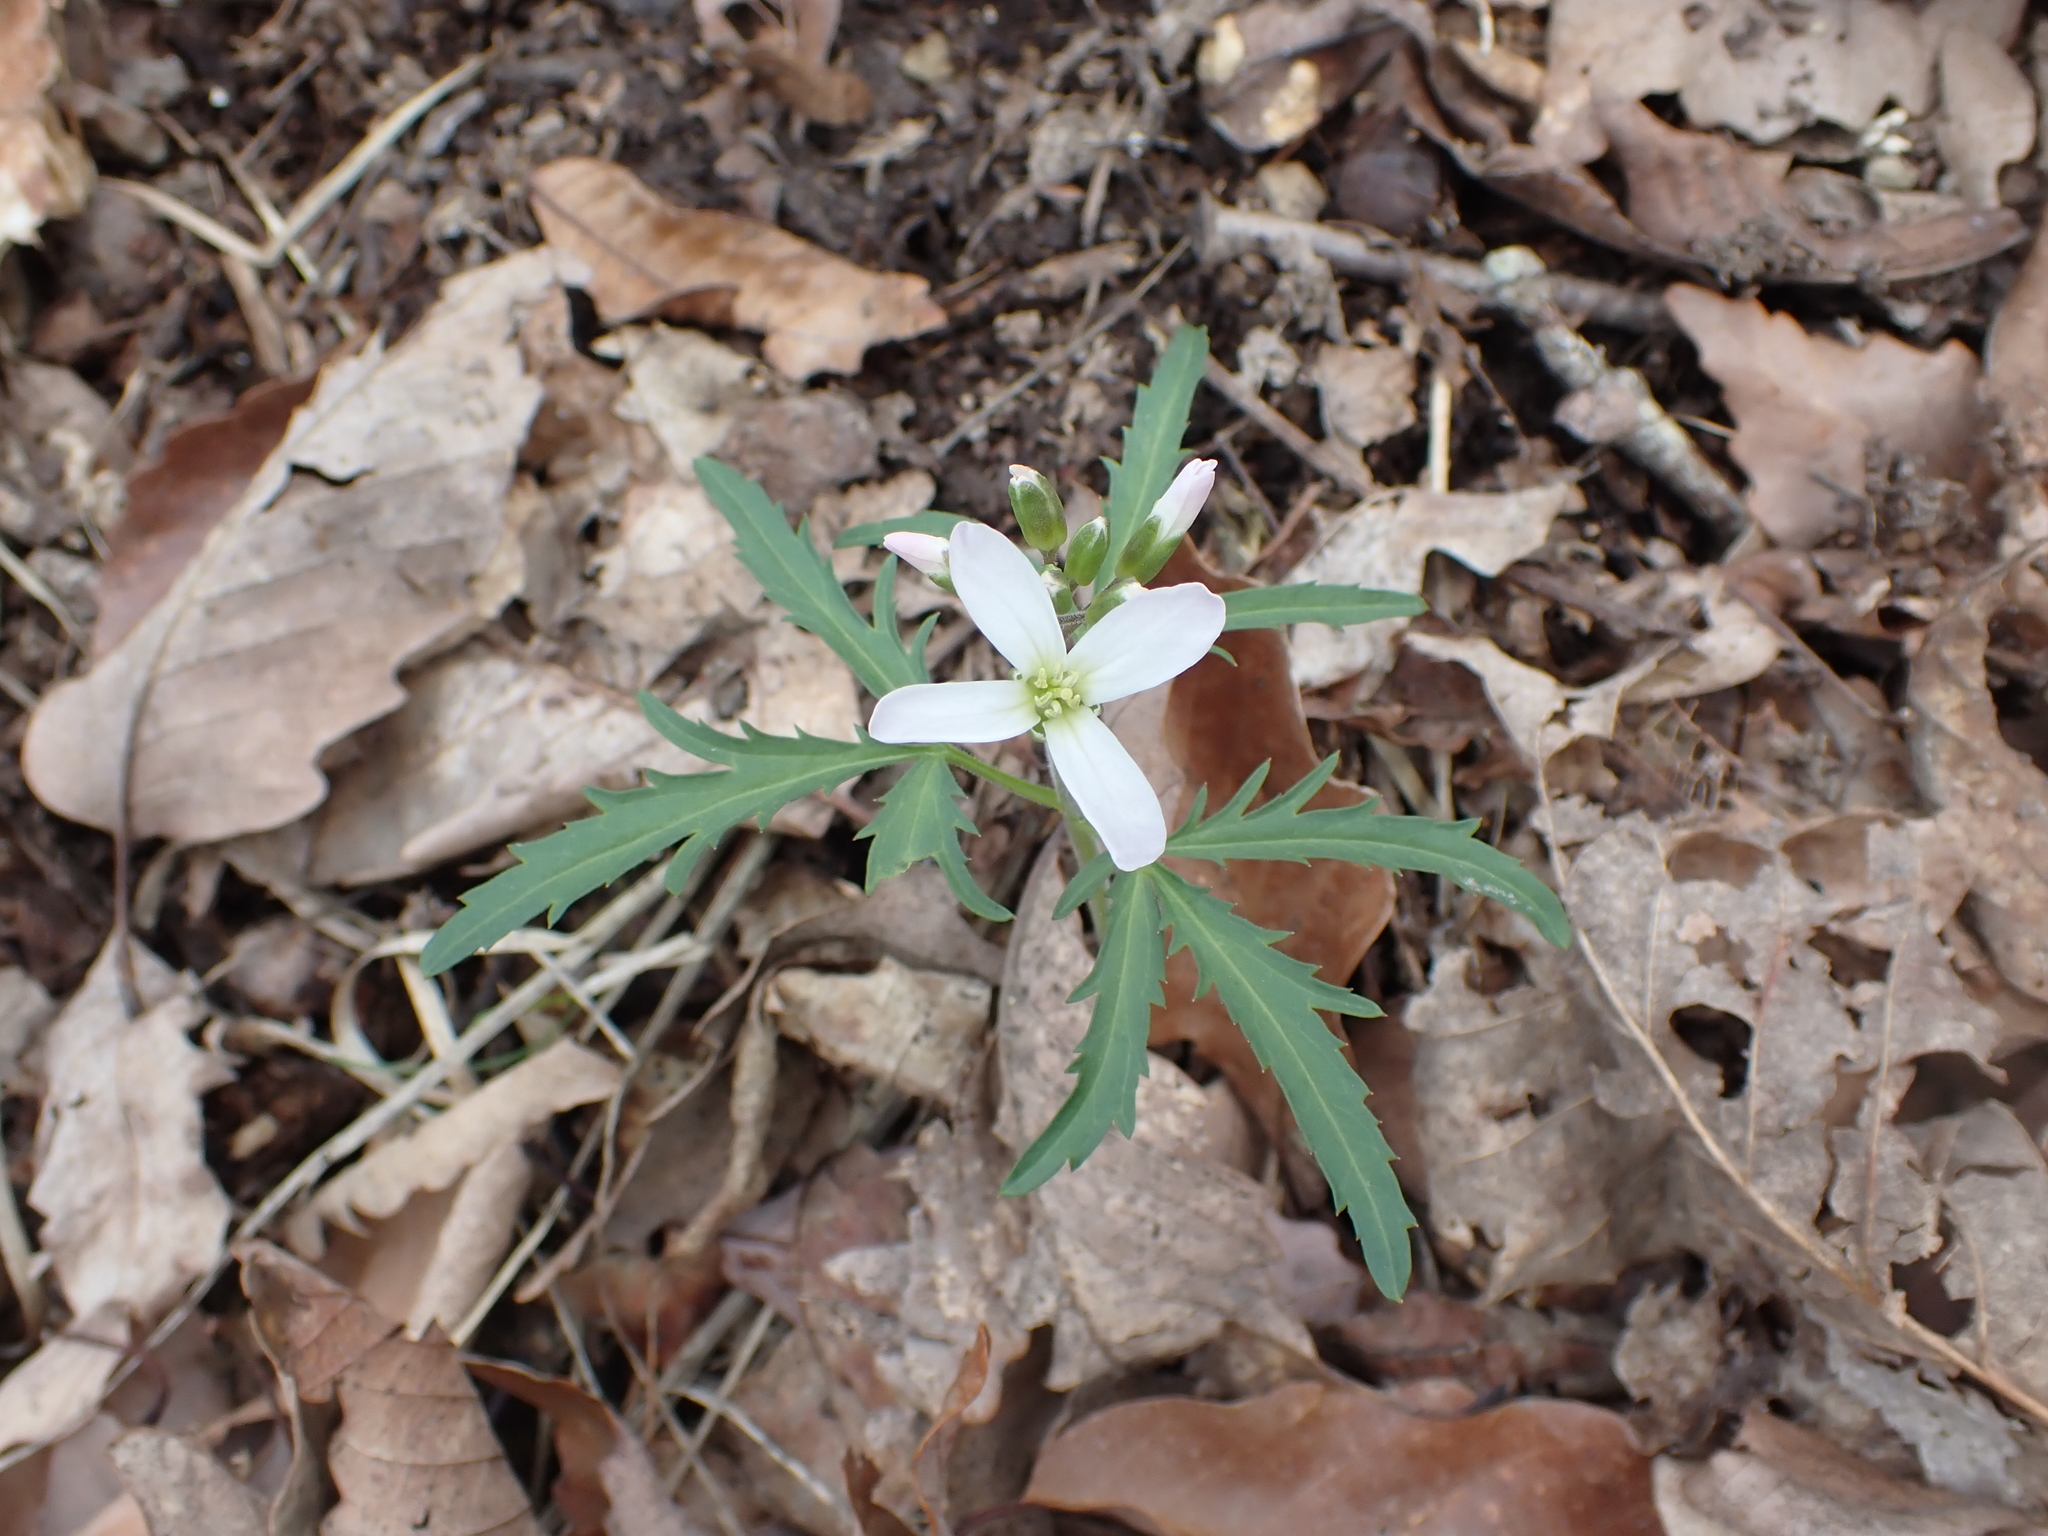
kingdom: Plantae
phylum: Tracheophyta
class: Magnoliopsida
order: Brassicales
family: Brassicaceae
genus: Cardamine
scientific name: Cardamine concatenata
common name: Cut-leaf toothcup
